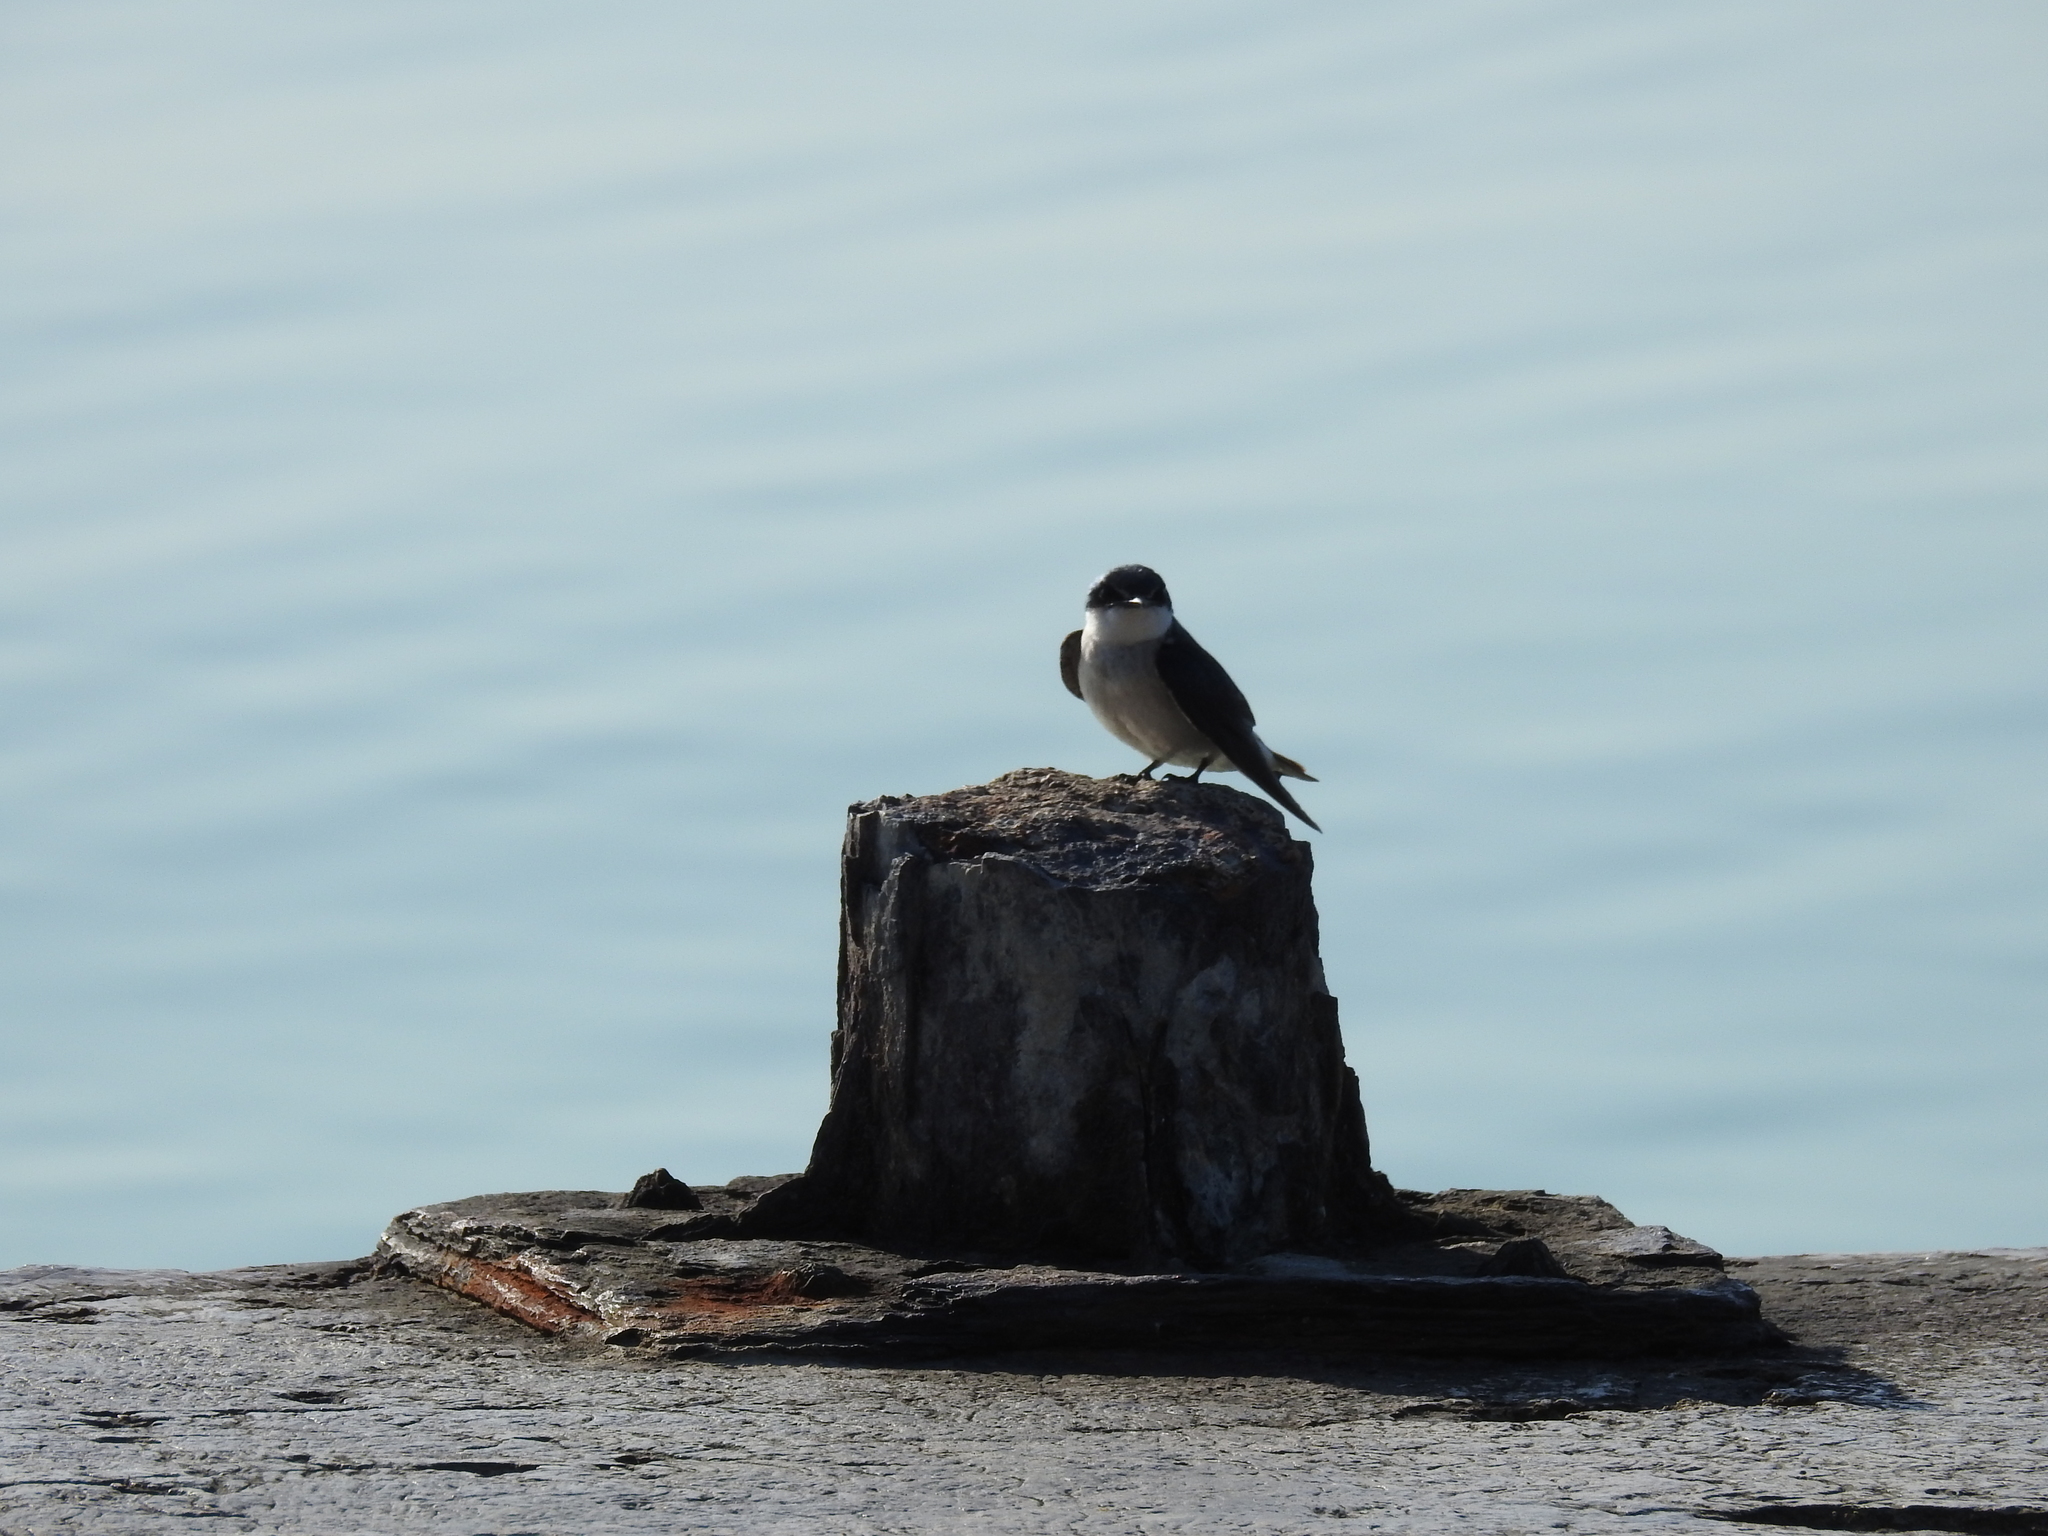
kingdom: Animalia
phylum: Chordata
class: Aves
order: Passeriformes
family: Hirundinidae
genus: Tachycineta
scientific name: Tachycineta albilinea
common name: Mangrove swallow
